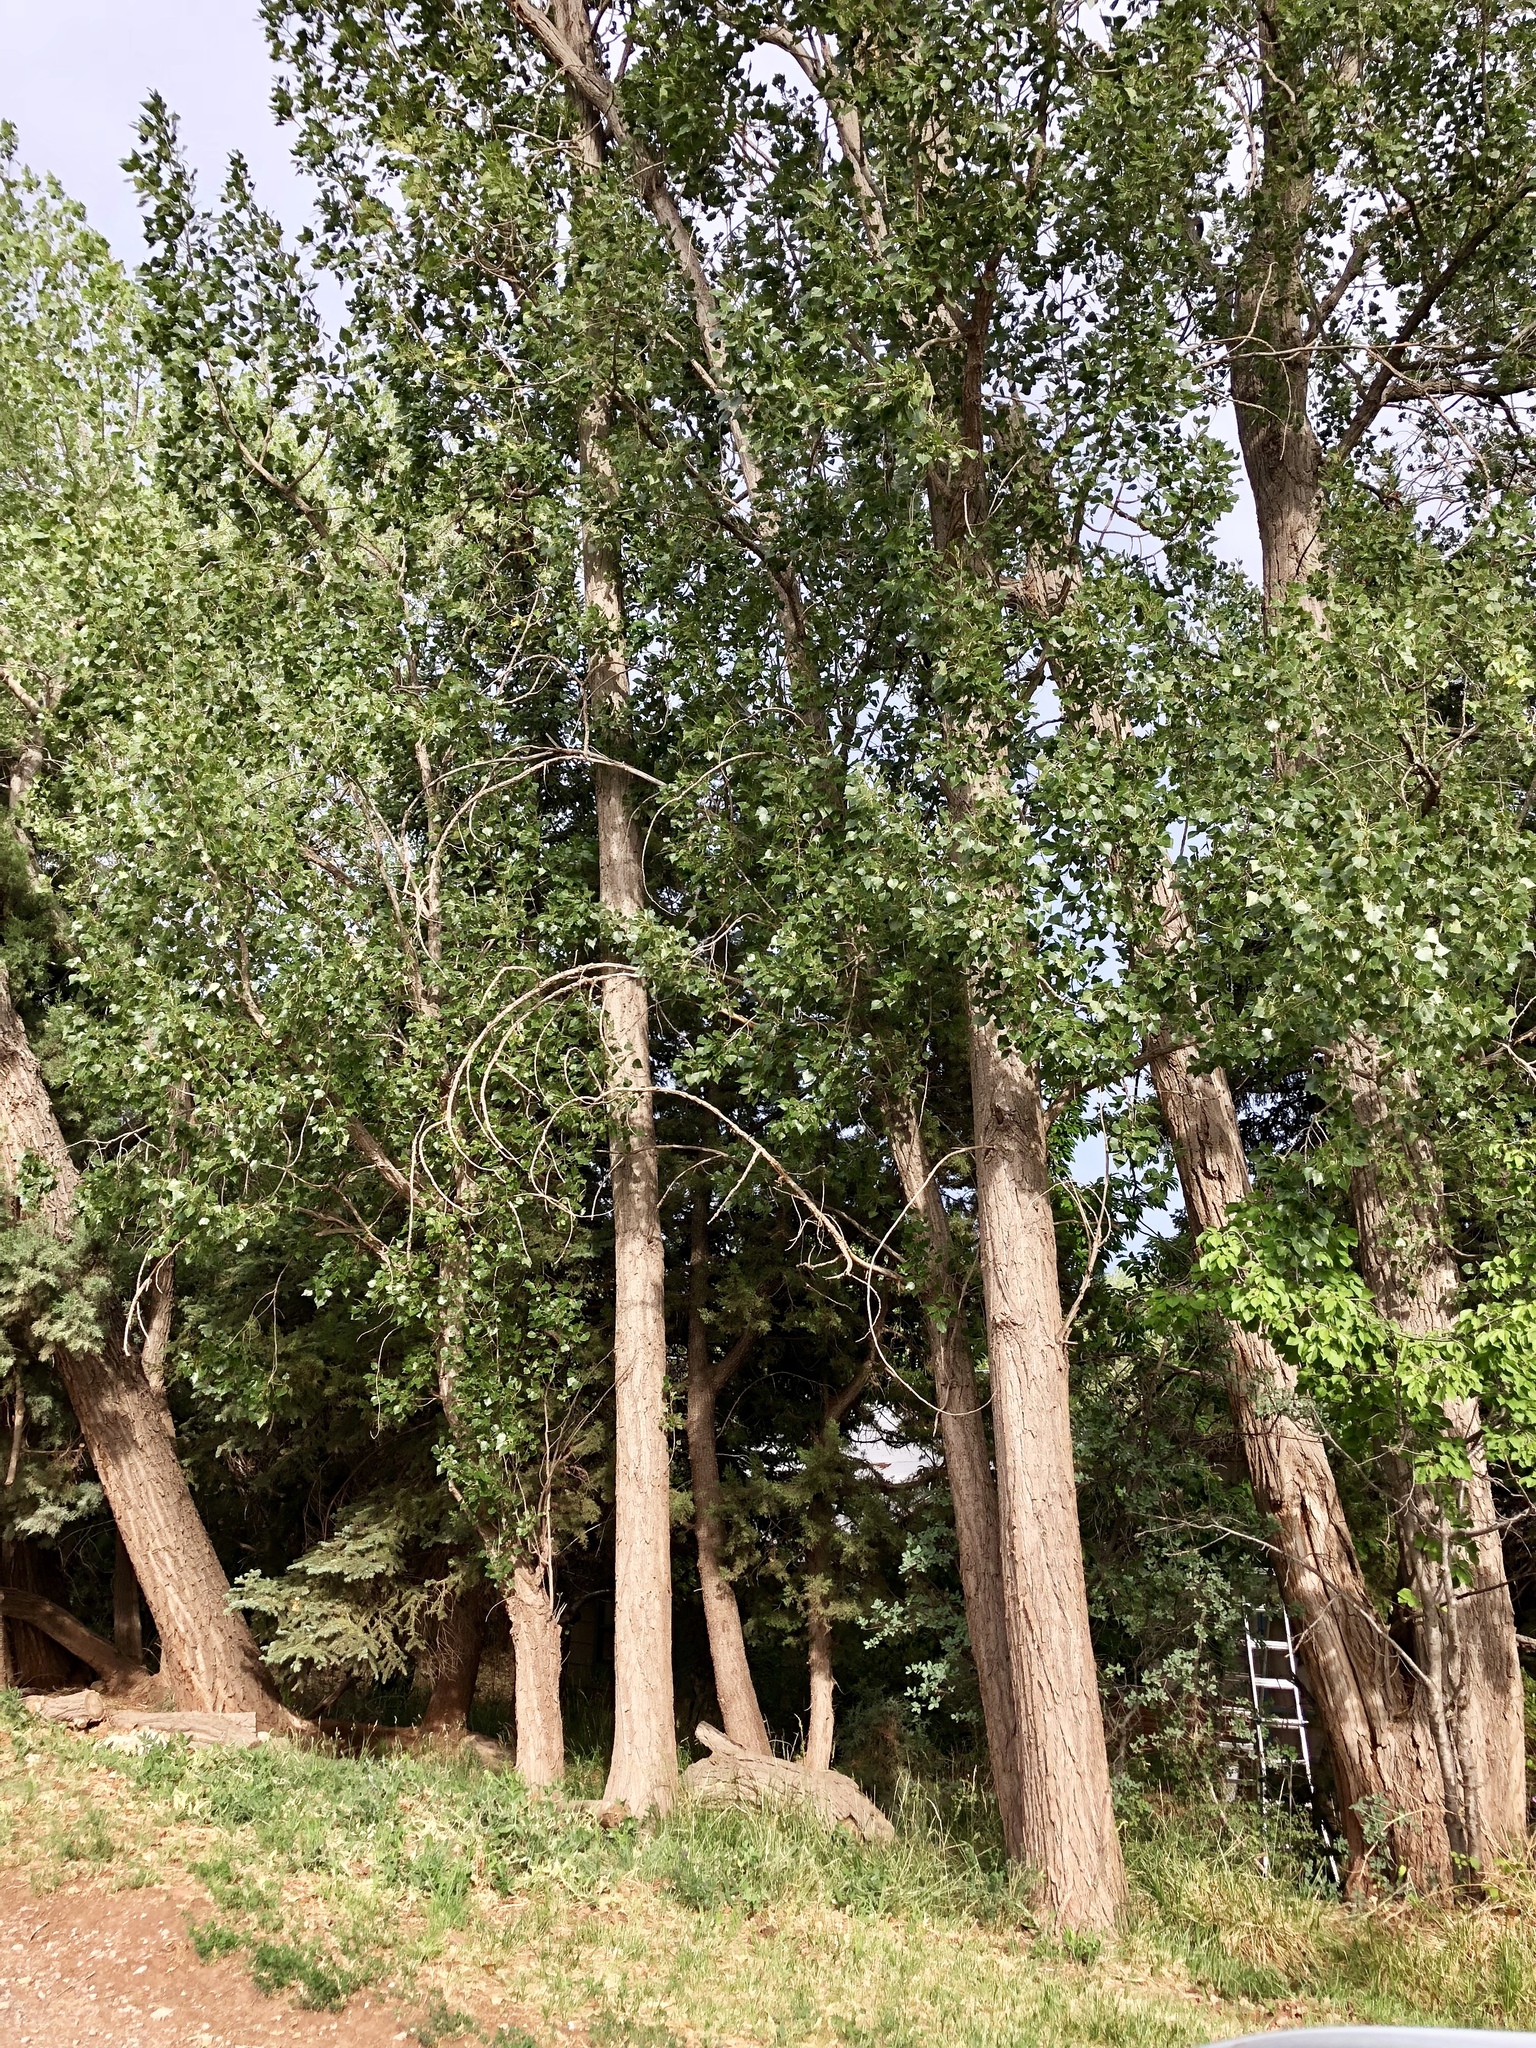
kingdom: Plantae
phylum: Tracheophyta
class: Magnoliopsida
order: Malpighiales
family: Salicaceae
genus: Populus
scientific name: Populus fremontii
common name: Fremont's cottonwood
